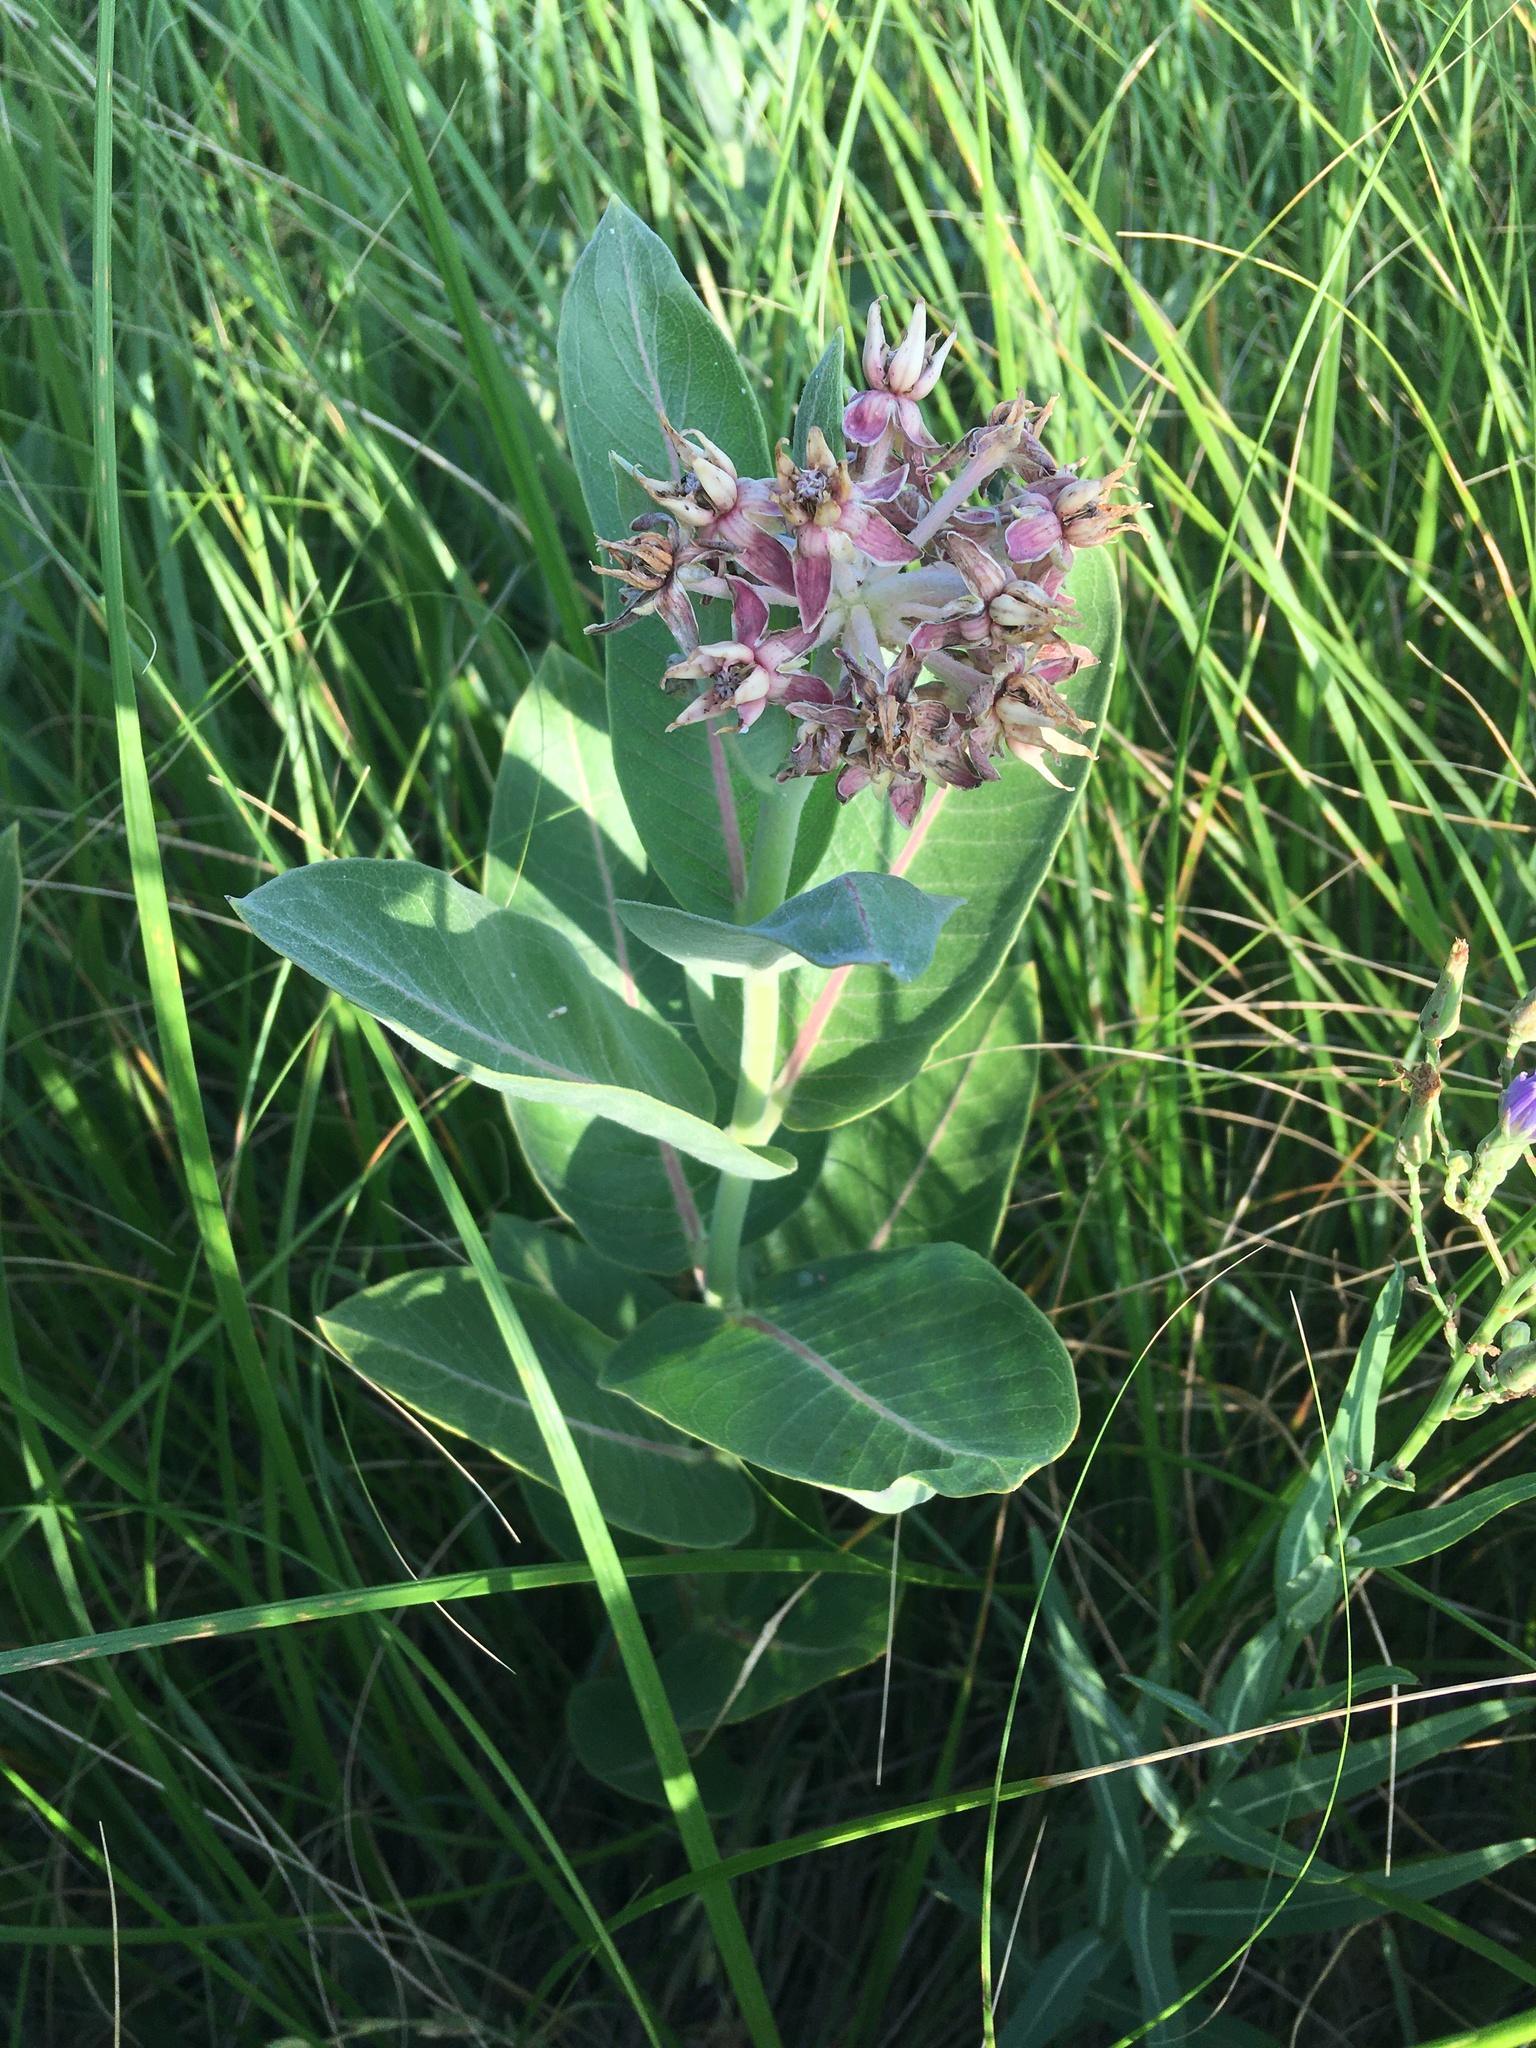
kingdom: Plantae
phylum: Tracheophyta
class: Magnoliopsida
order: Gentianales
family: Apocynaceae
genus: Asclepias
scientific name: Asclepias speciosa
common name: Showy milkweed
